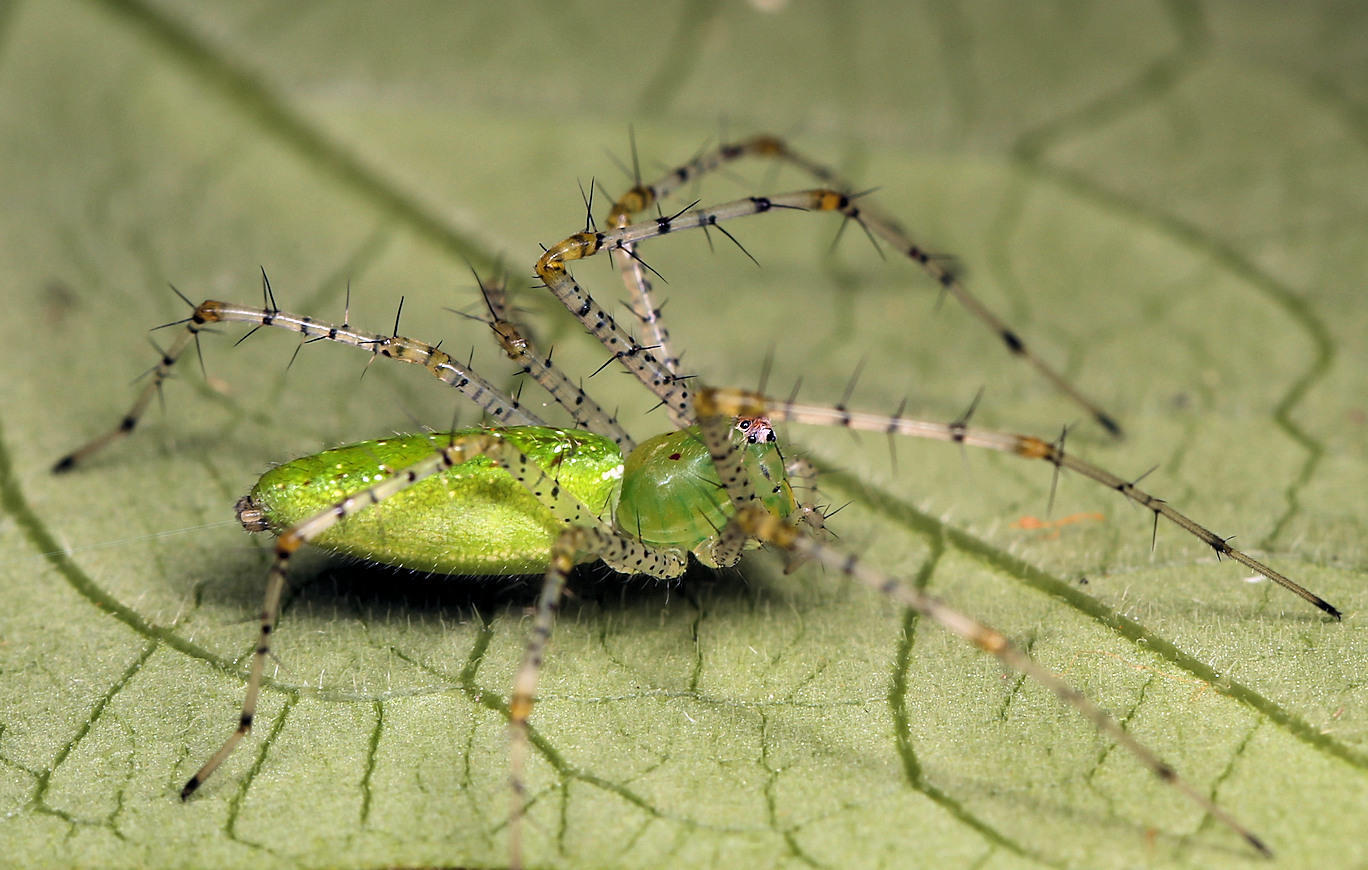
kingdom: Animalia
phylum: Arthropoda
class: Arachnida
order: Araneae
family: Oxyopidae
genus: Peucetia
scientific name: Peucetia viridis
